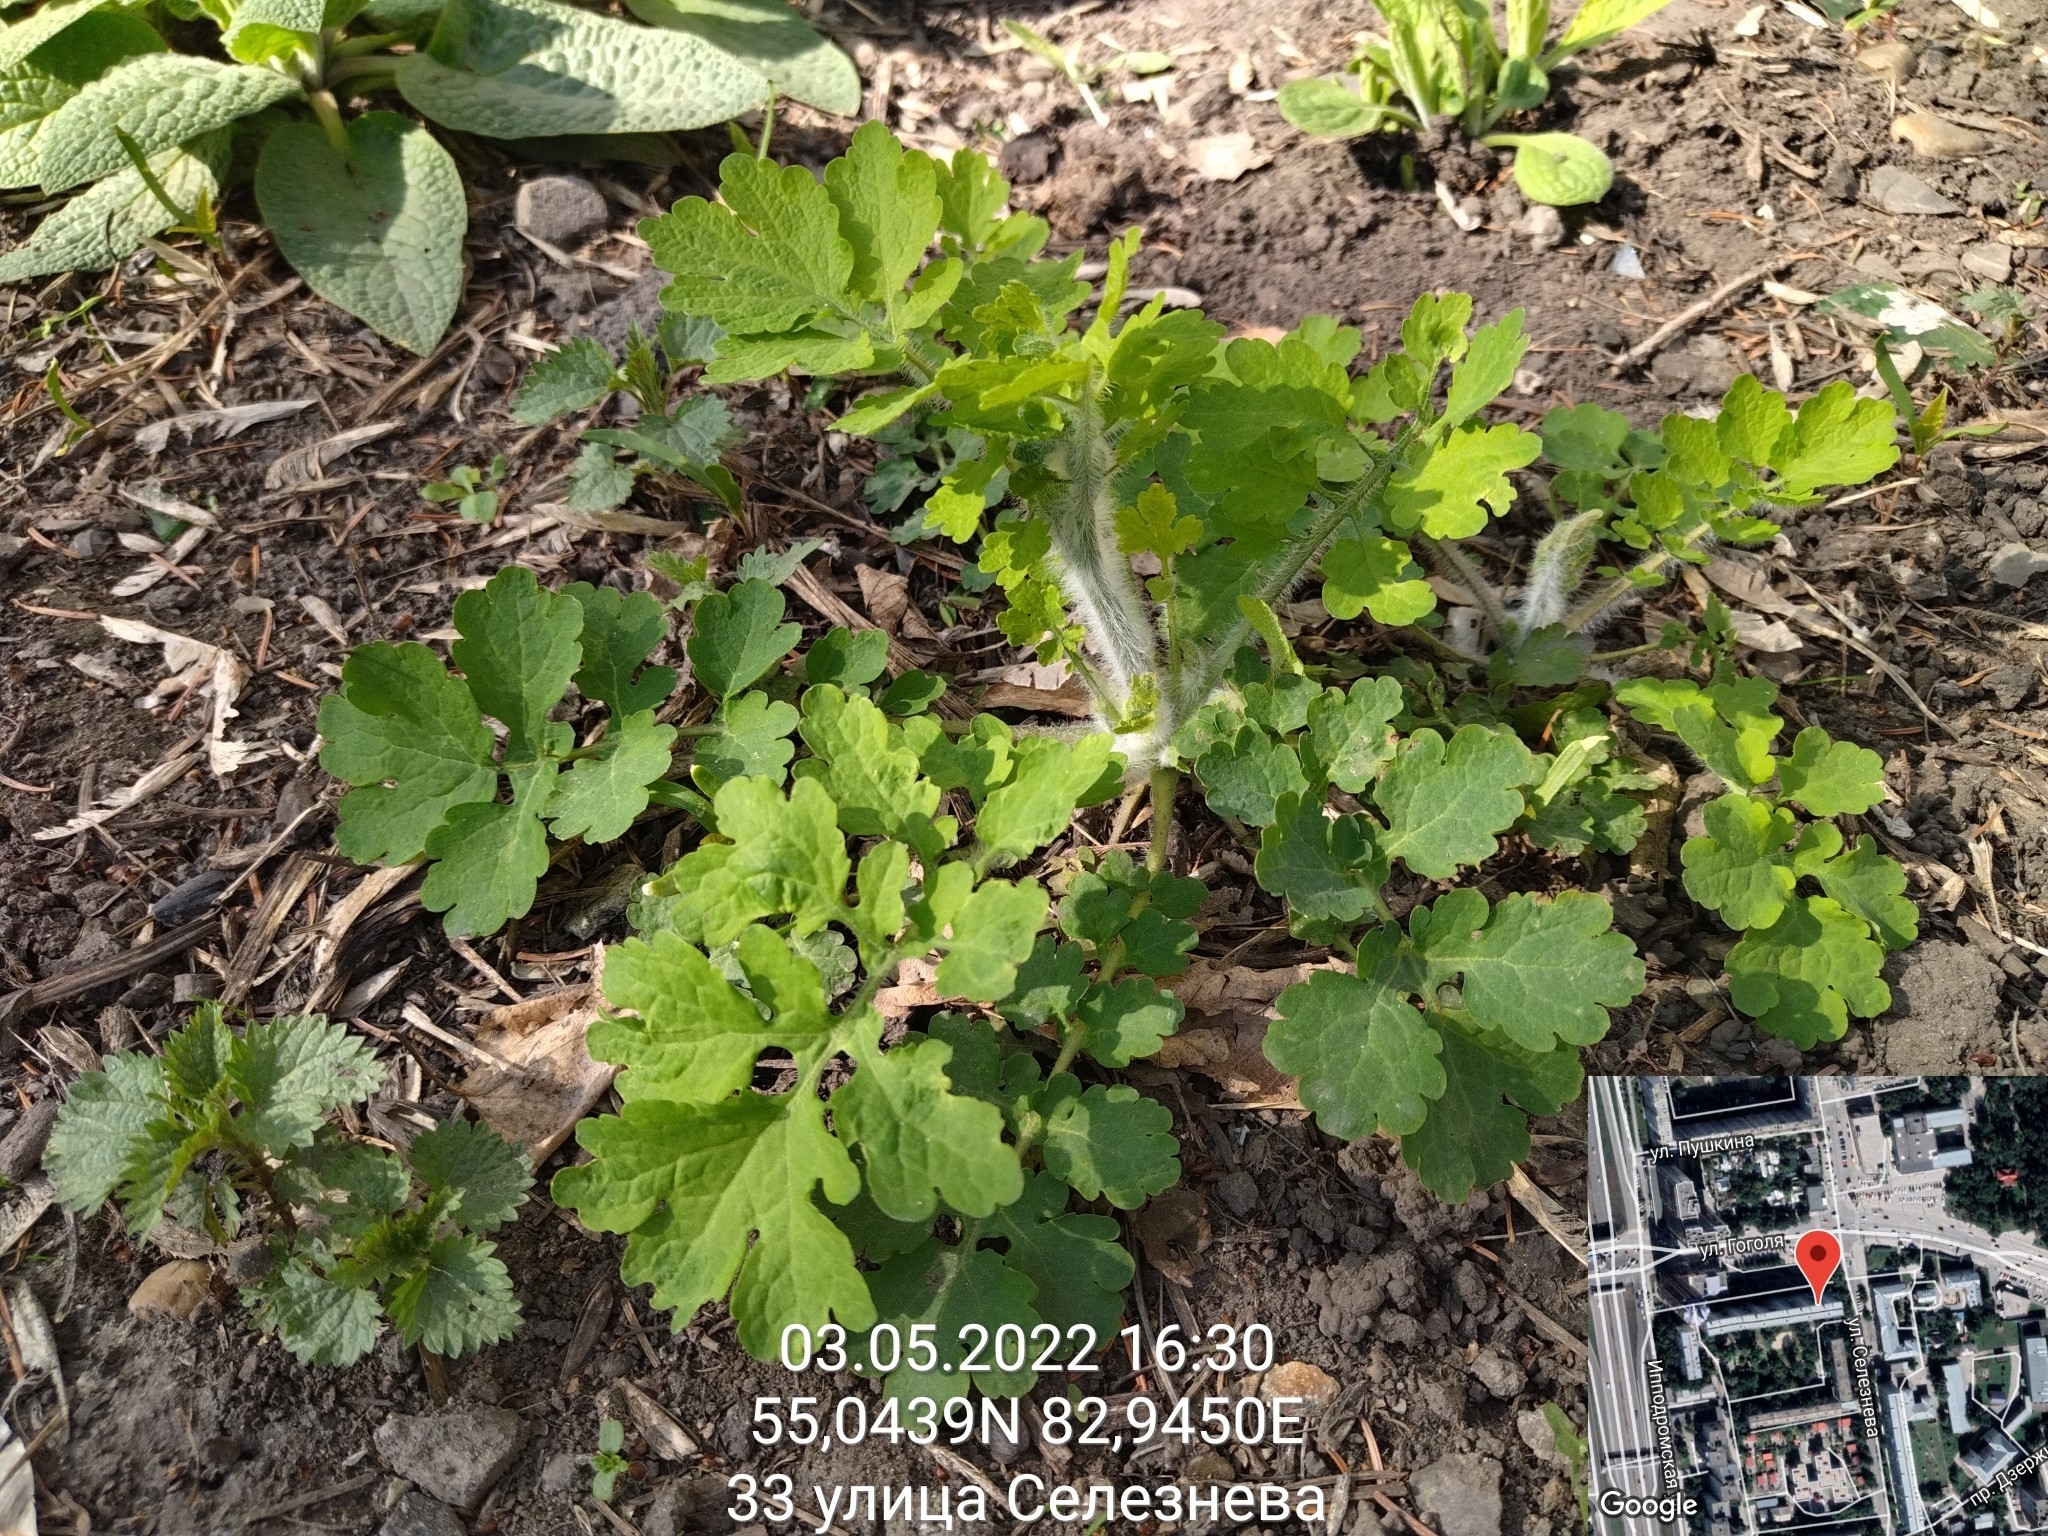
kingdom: Plantae
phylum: Tracheophyta
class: Magnoliopsida
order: Ranunculales
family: Papaveraceae
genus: Chelidonium
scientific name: Chelidonium majus
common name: Greater celandine
